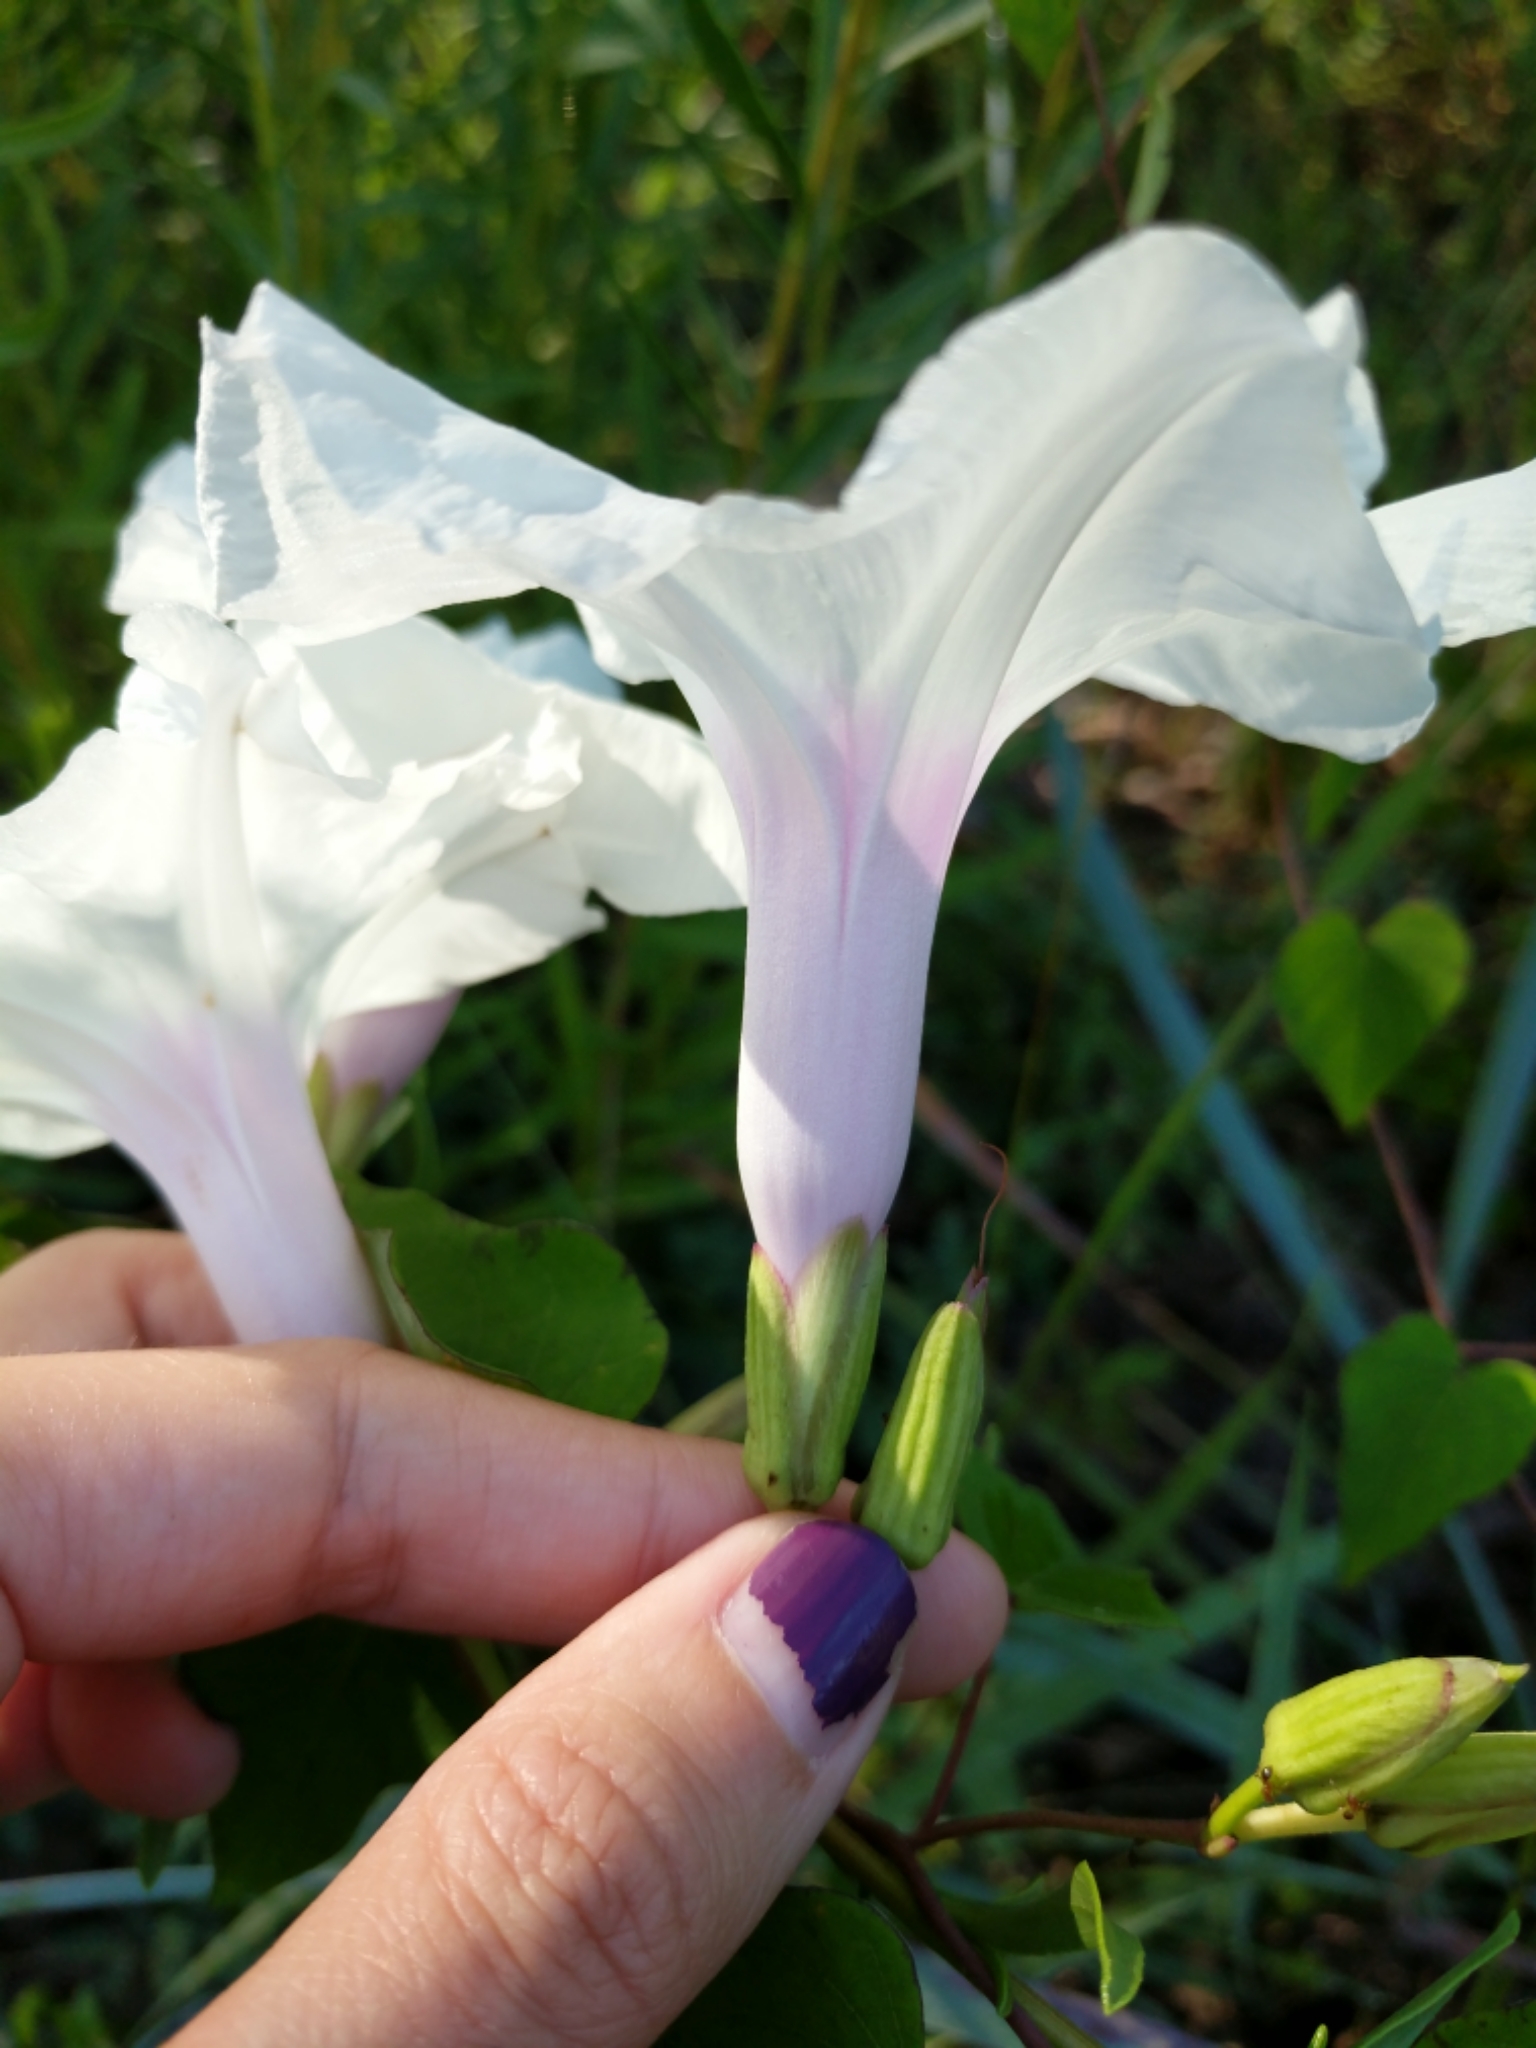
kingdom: Plantae
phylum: Tracheophyta
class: Magnoliopsida
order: Solanales
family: Convolvulaceae
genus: Ipomoea
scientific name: Ipomoea pandurata
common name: Man-of-the-earth
